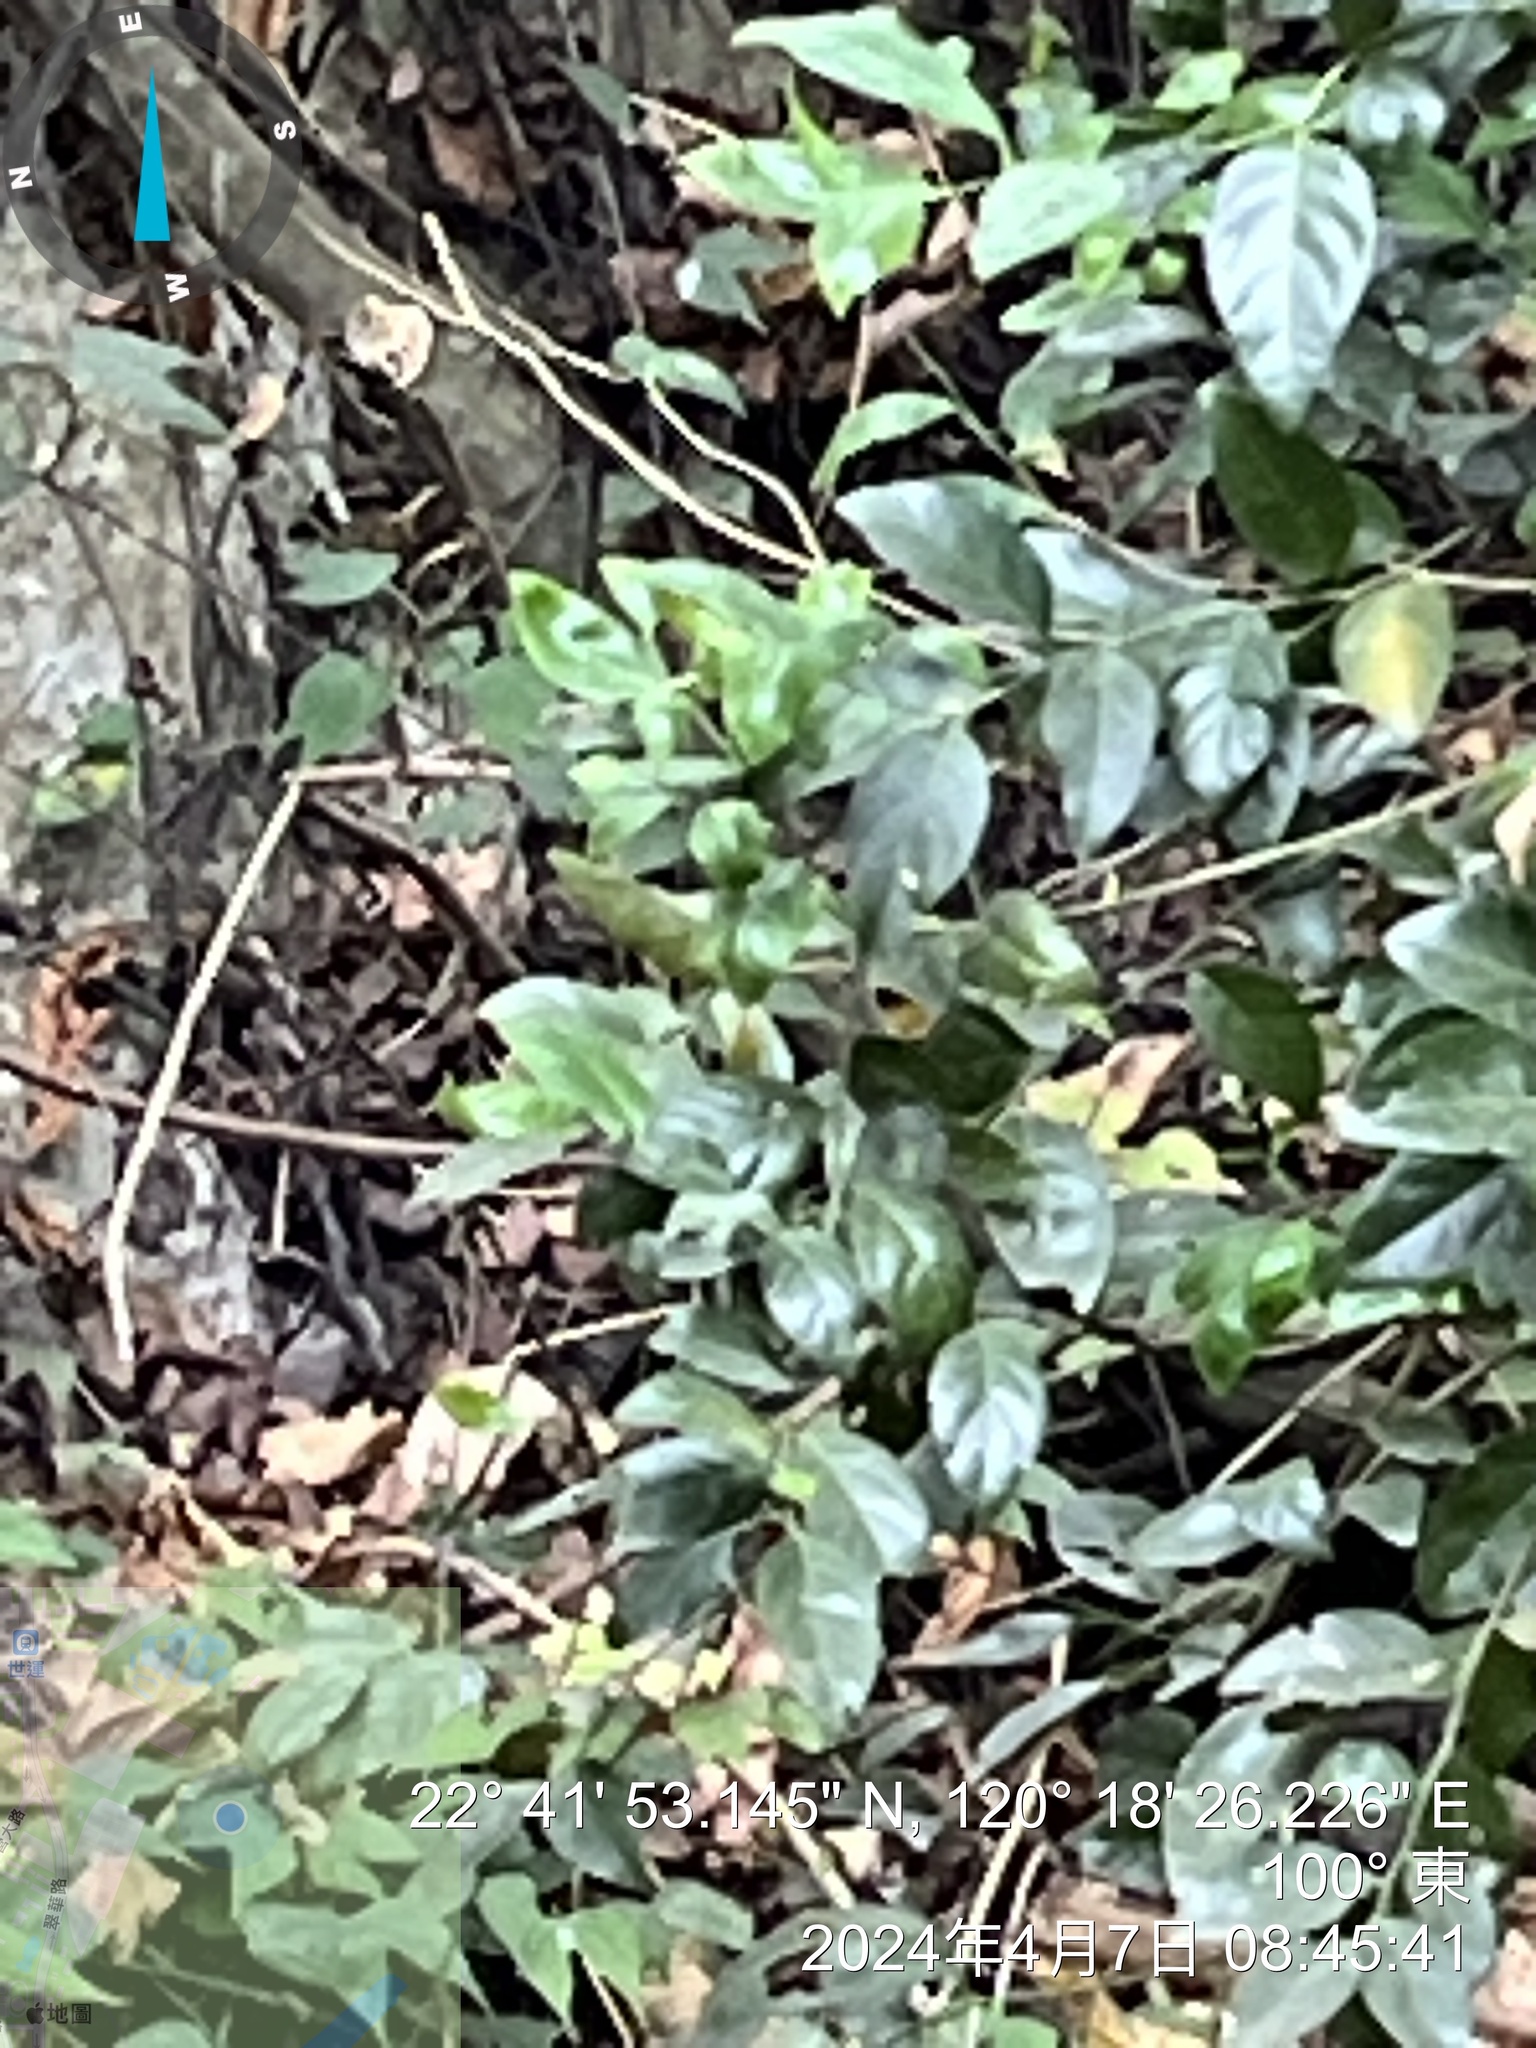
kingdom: Plantae
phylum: Tracheophyta
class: Magnoliopsida
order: Santalales
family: Opiliaceae
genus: Champereia
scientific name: Champereia manillana
